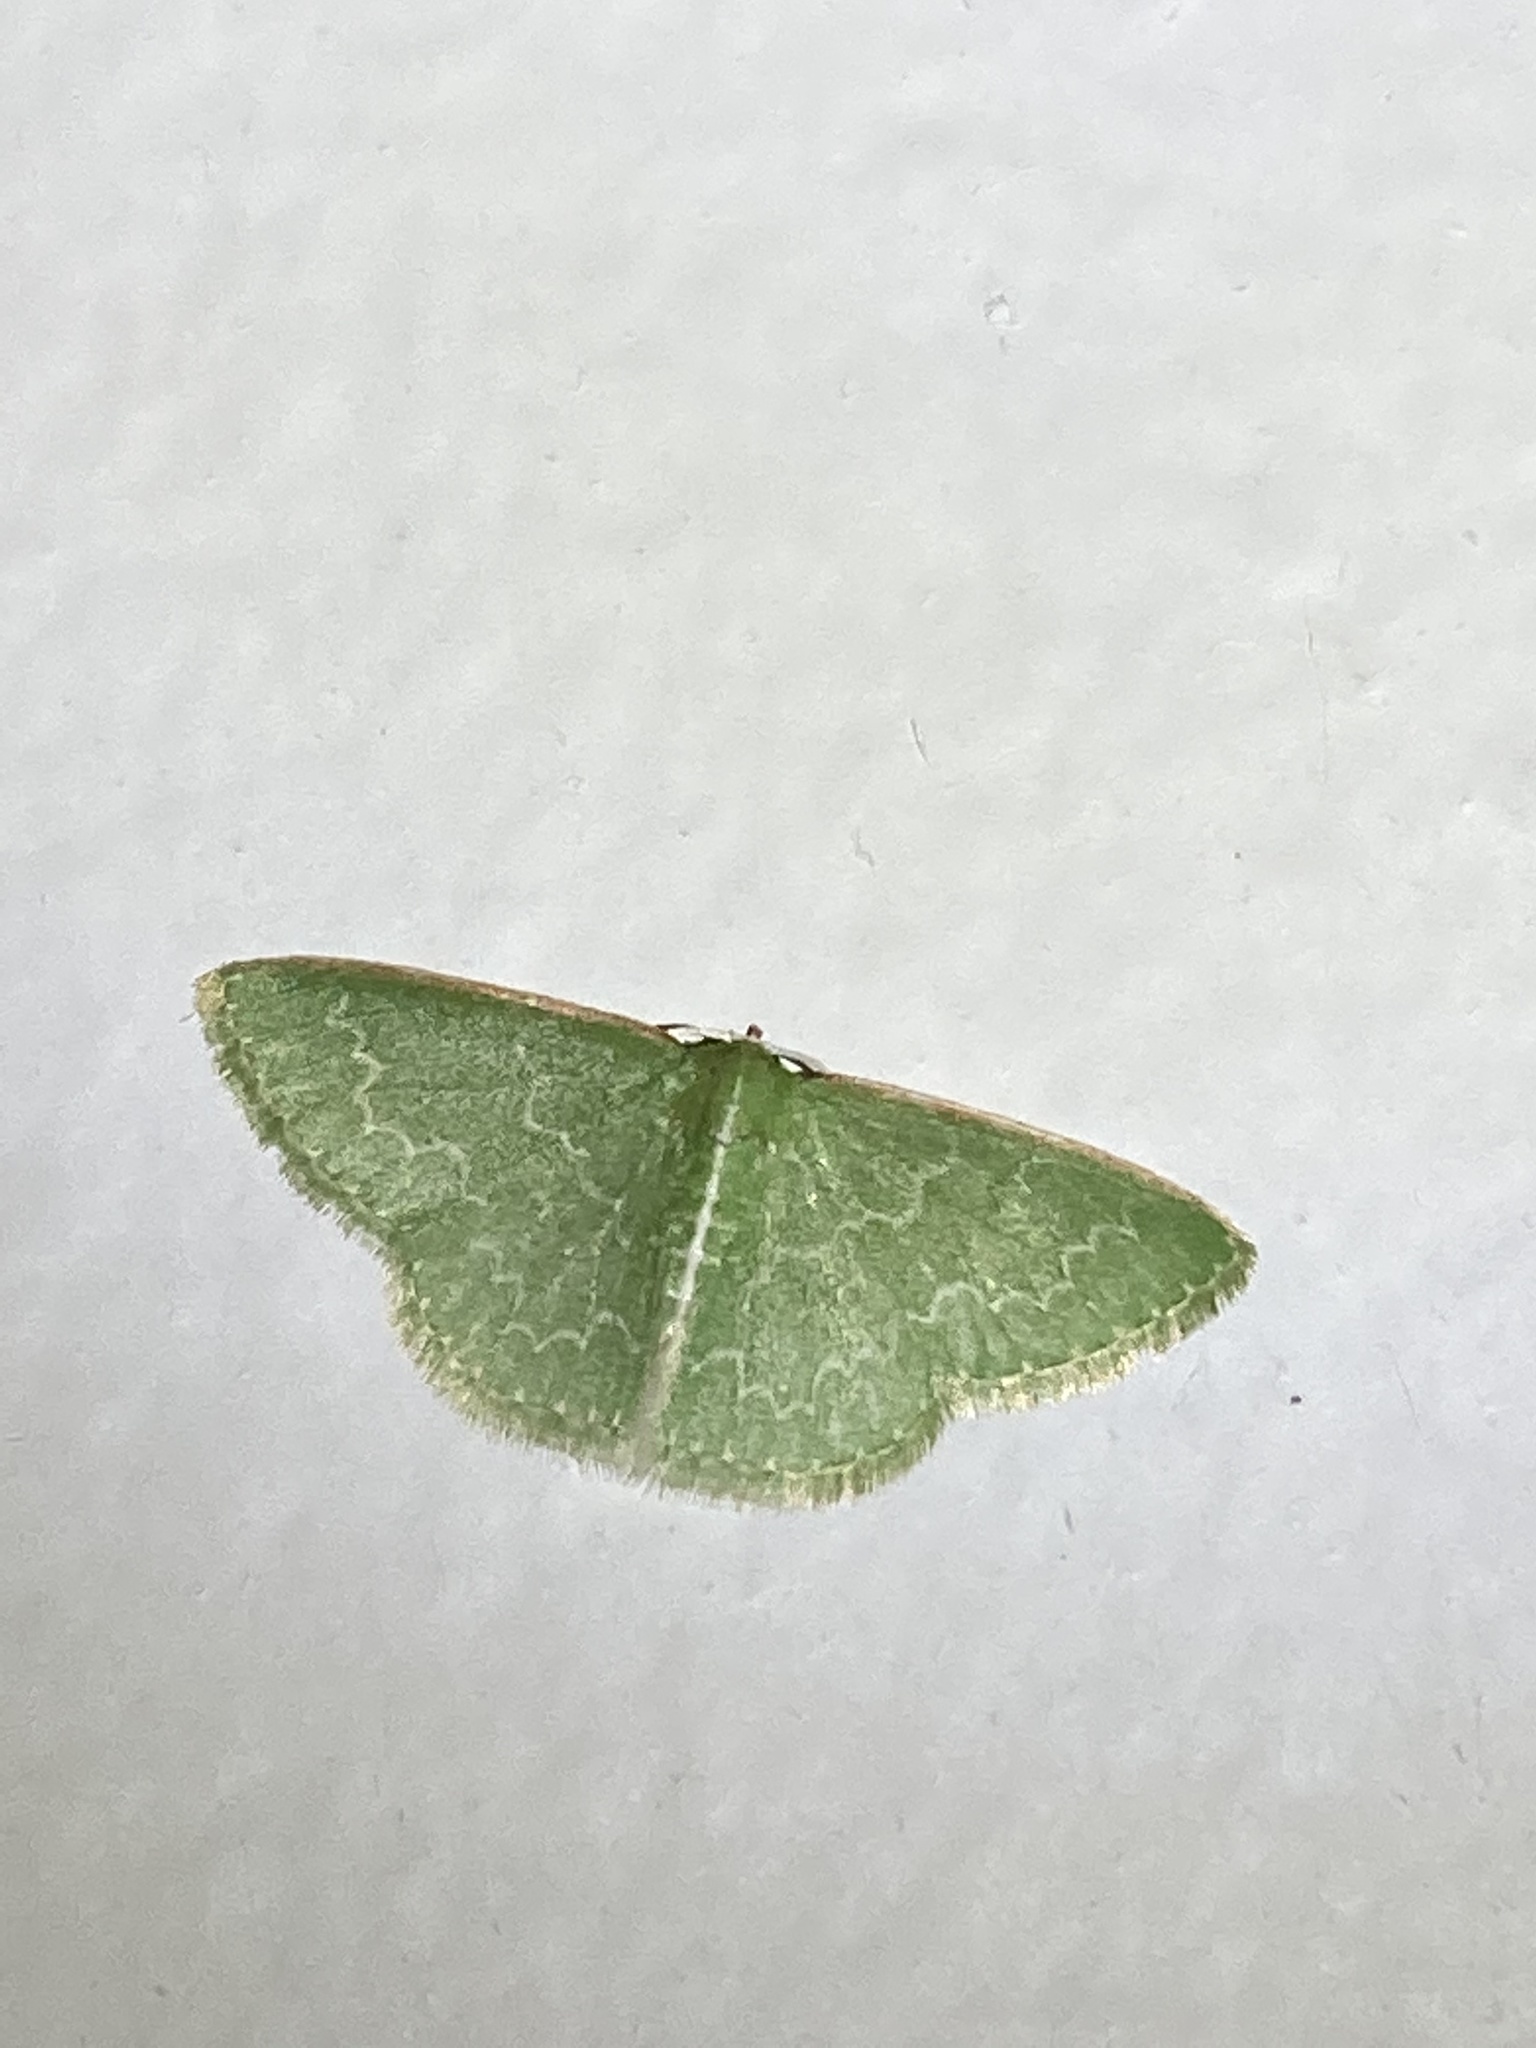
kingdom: Animalia
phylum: Arthropoda
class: Insecta
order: Lepidoptera
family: Geometridae
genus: Synchlora
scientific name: Synchlora frondaria
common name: Southern emerald
